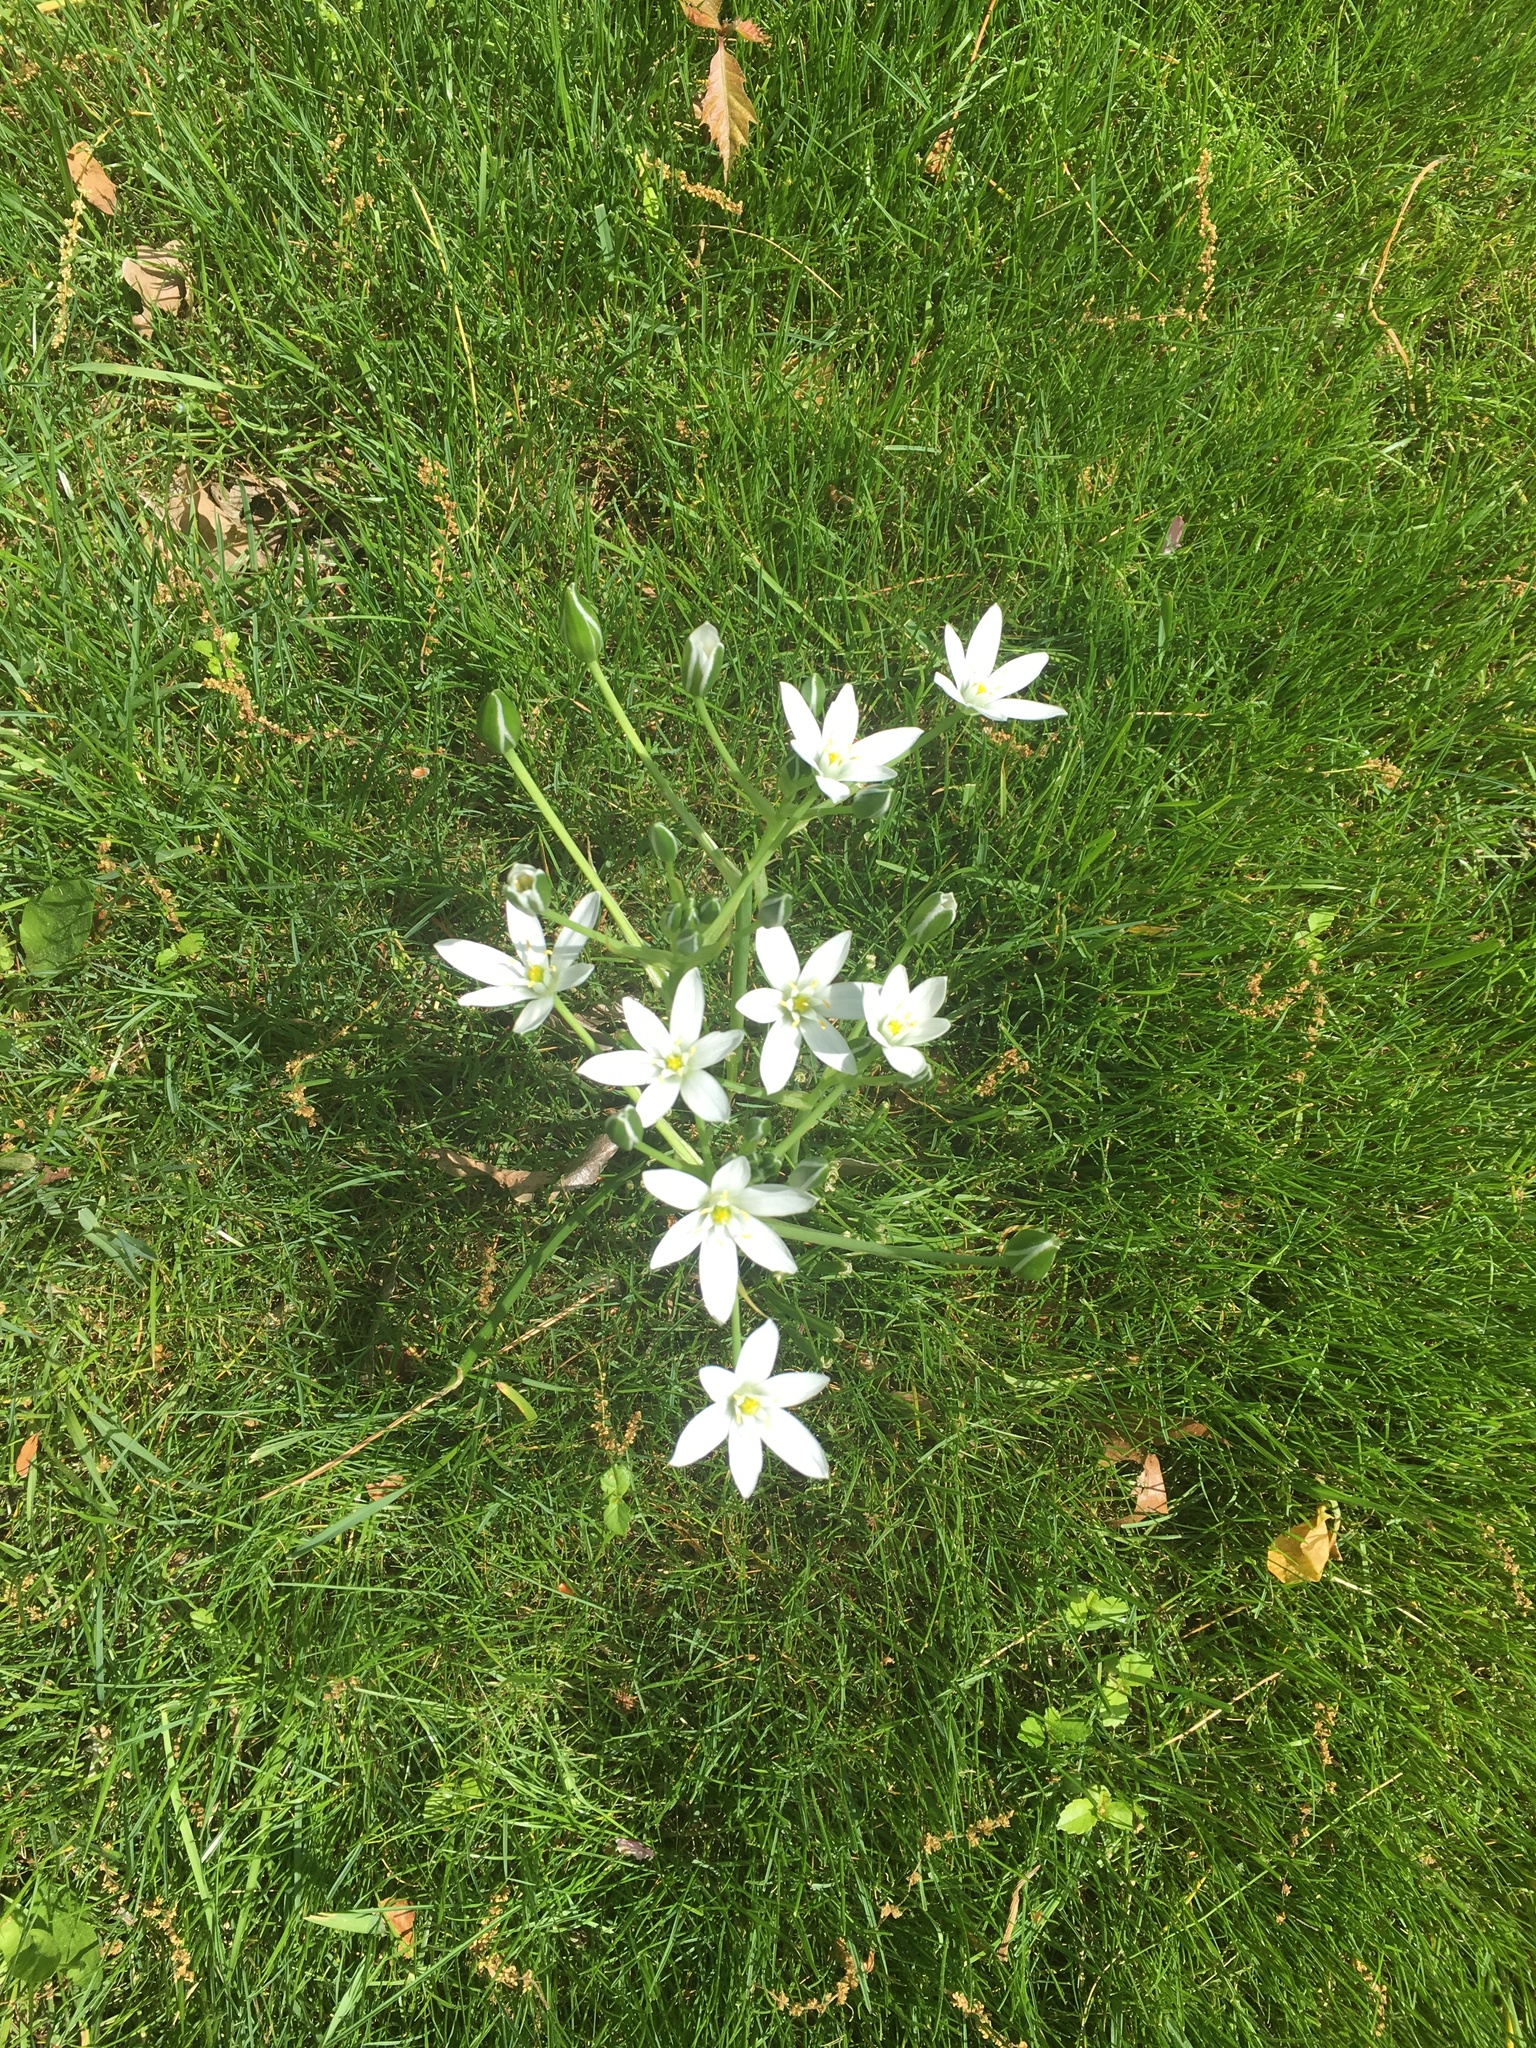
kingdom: Plantae
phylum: Tracheophyta
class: Liliopsida
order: Asparagales
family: Asparagaceae
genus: Ornithogalum
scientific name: Ornithogalum umbellatum
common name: Garden star-of-bethlehem
